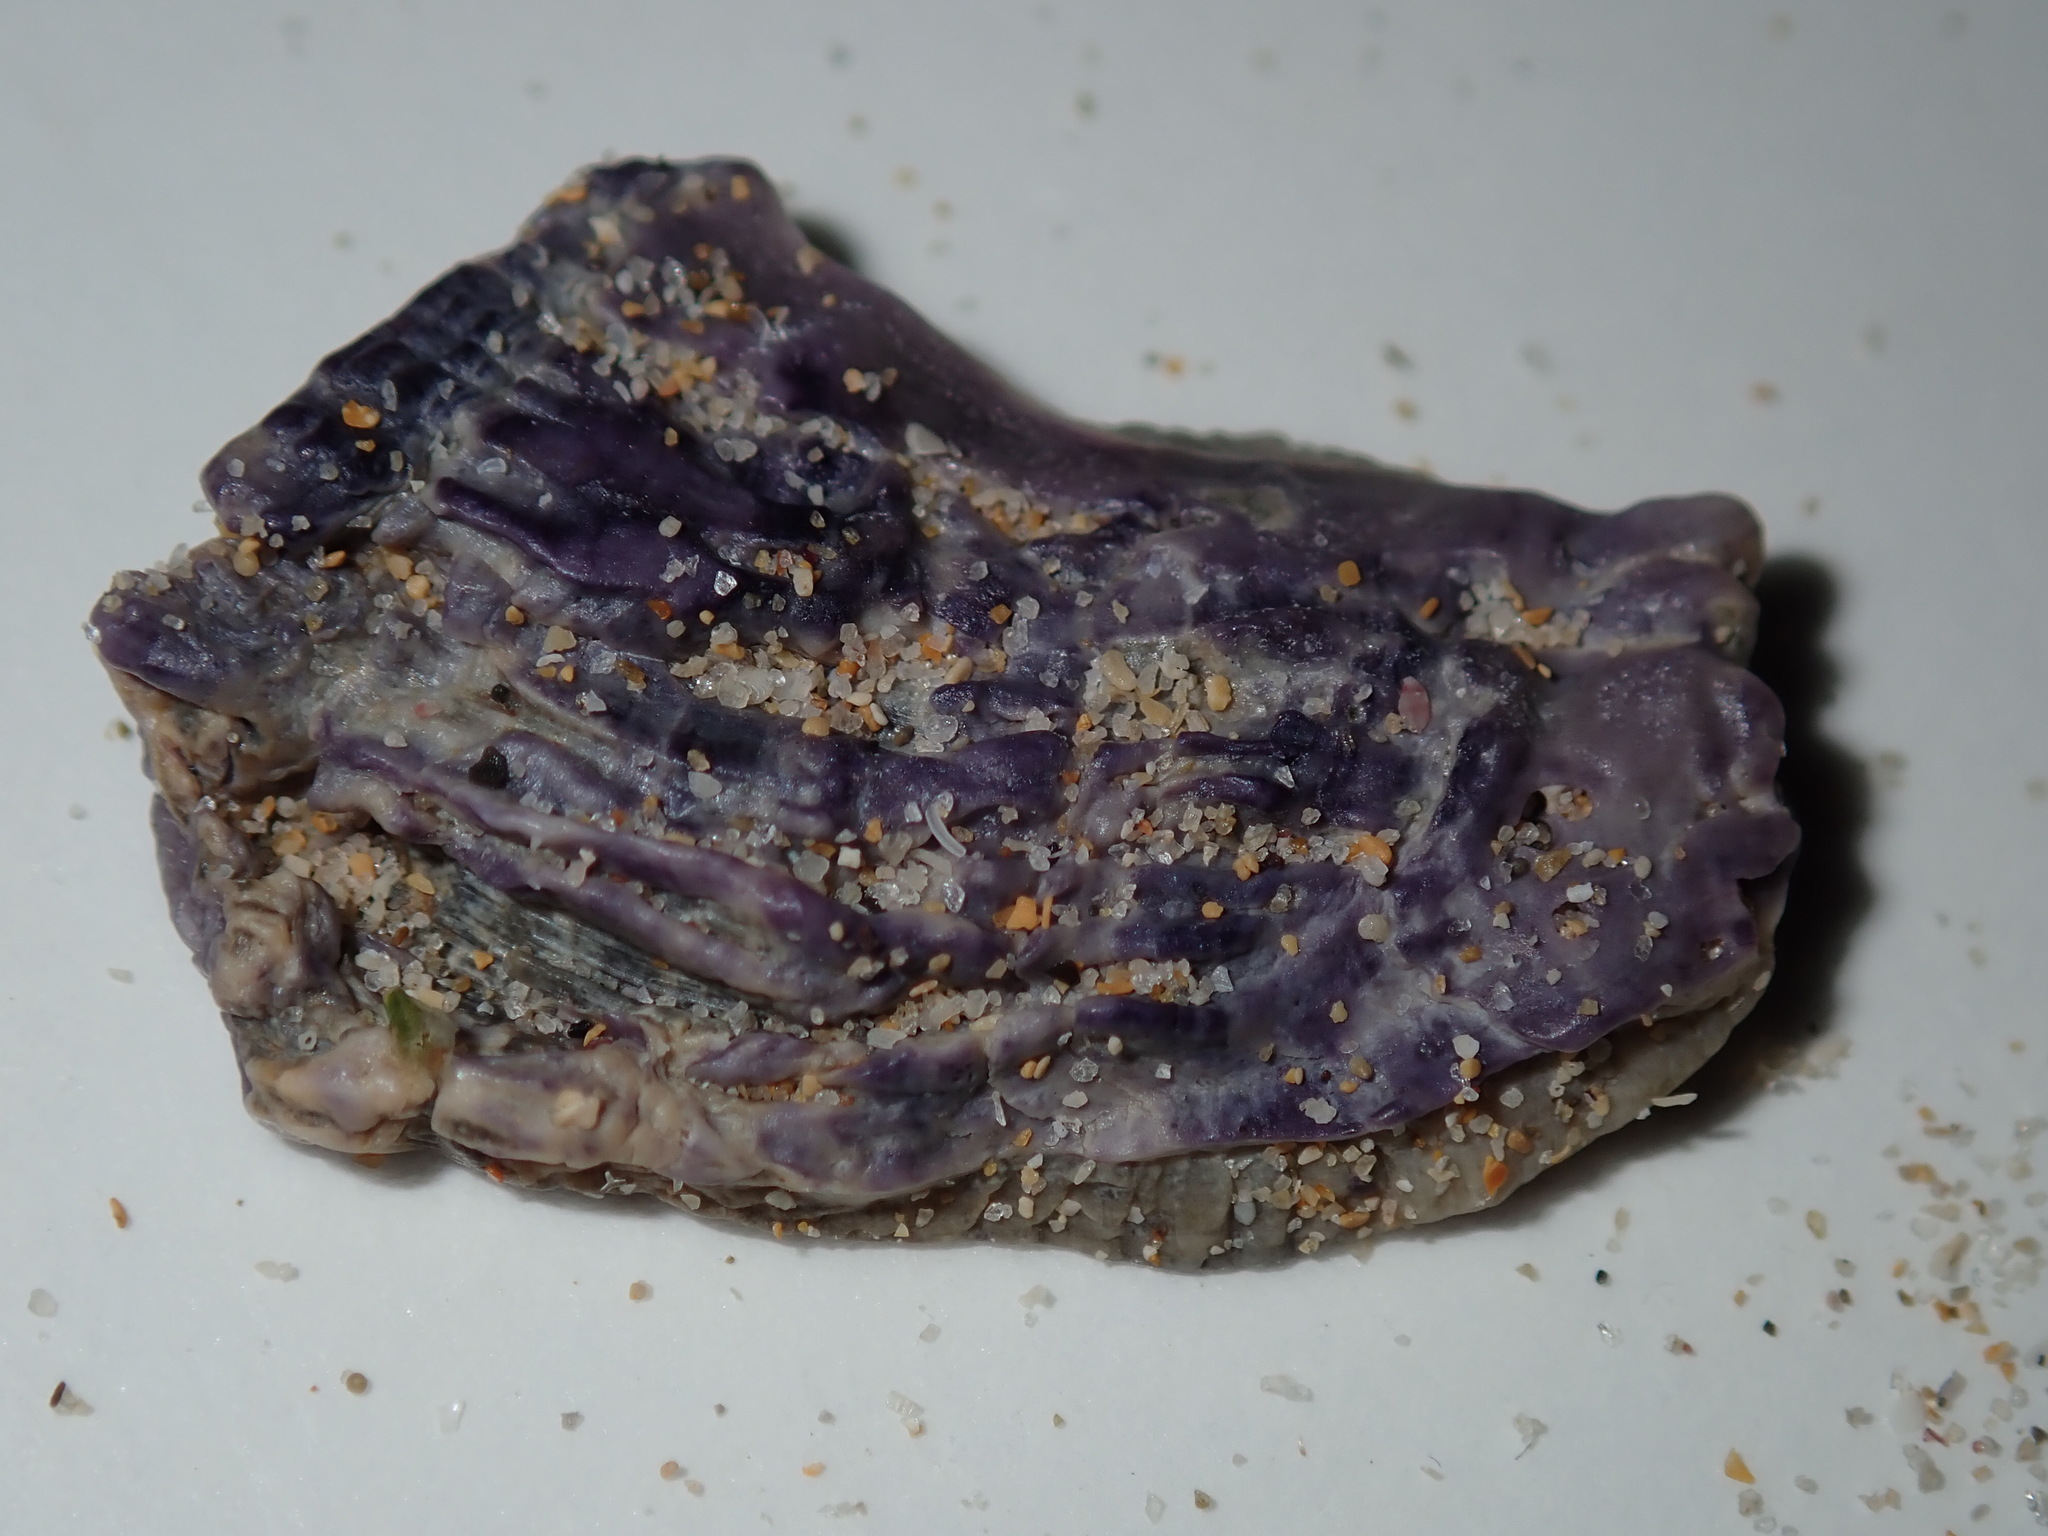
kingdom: Animalia
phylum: Arthropoda
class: Maxillopoda
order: Sessilia
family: Austrobalanidae
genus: Austrobalanus
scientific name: Austrobalanus imperator
